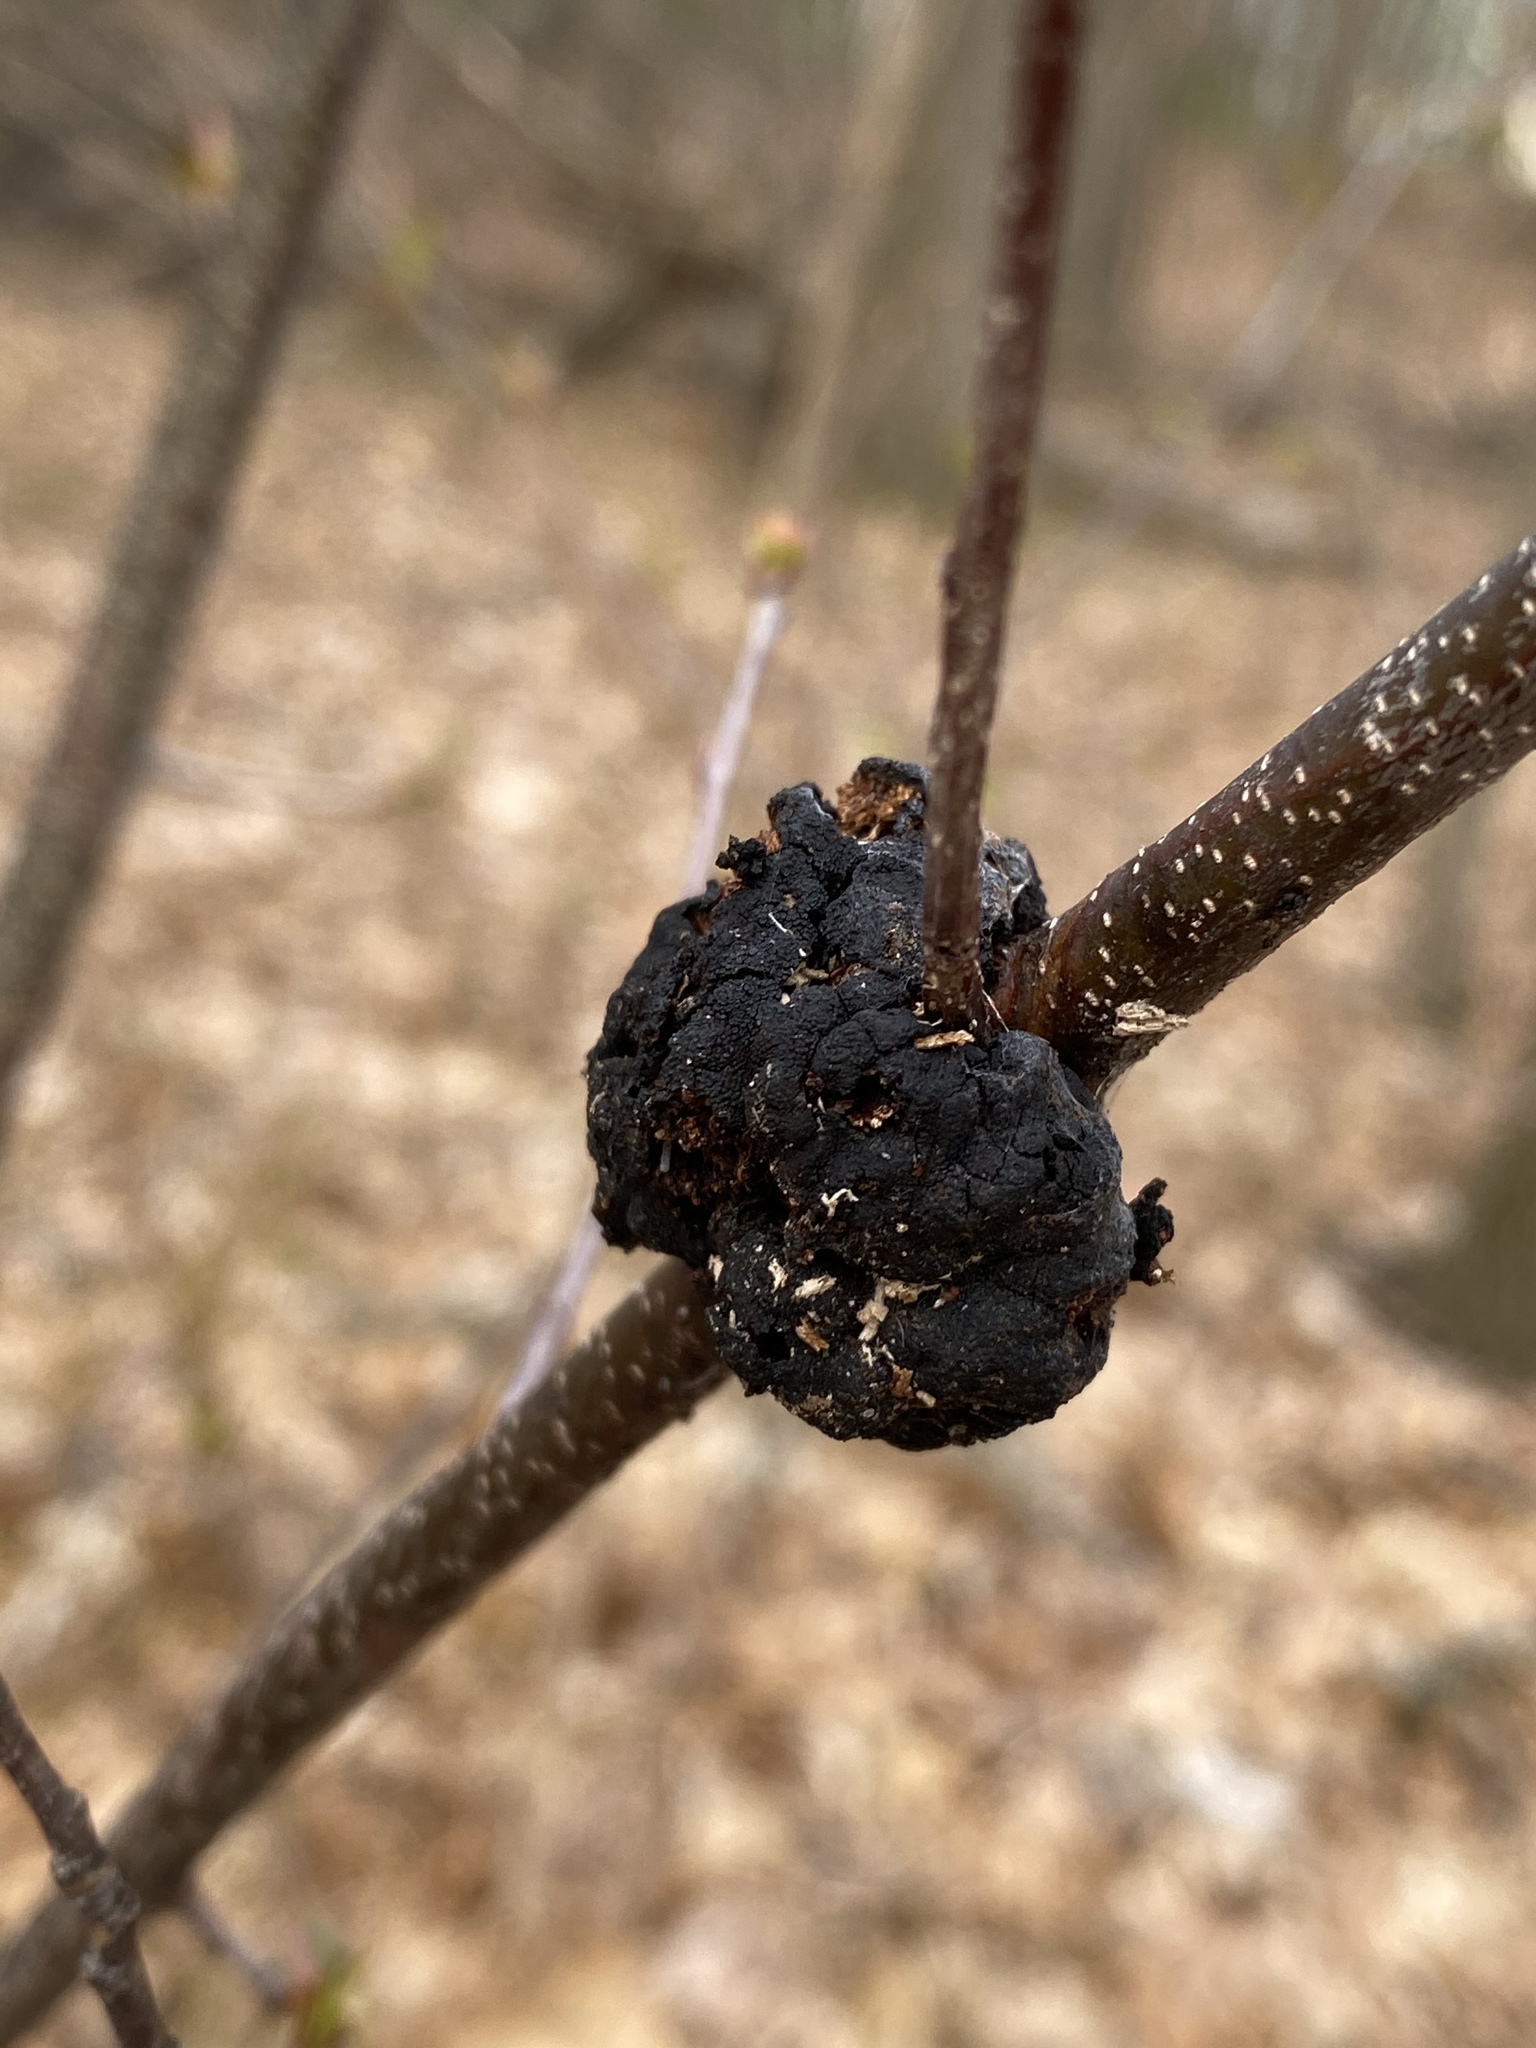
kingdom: Fungi
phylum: Ascomycota
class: Dothideomycetes
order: Venturiales
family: Venturiaceae
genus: Apiosporina
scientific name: Apiosporina morbosa
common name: Black knot
